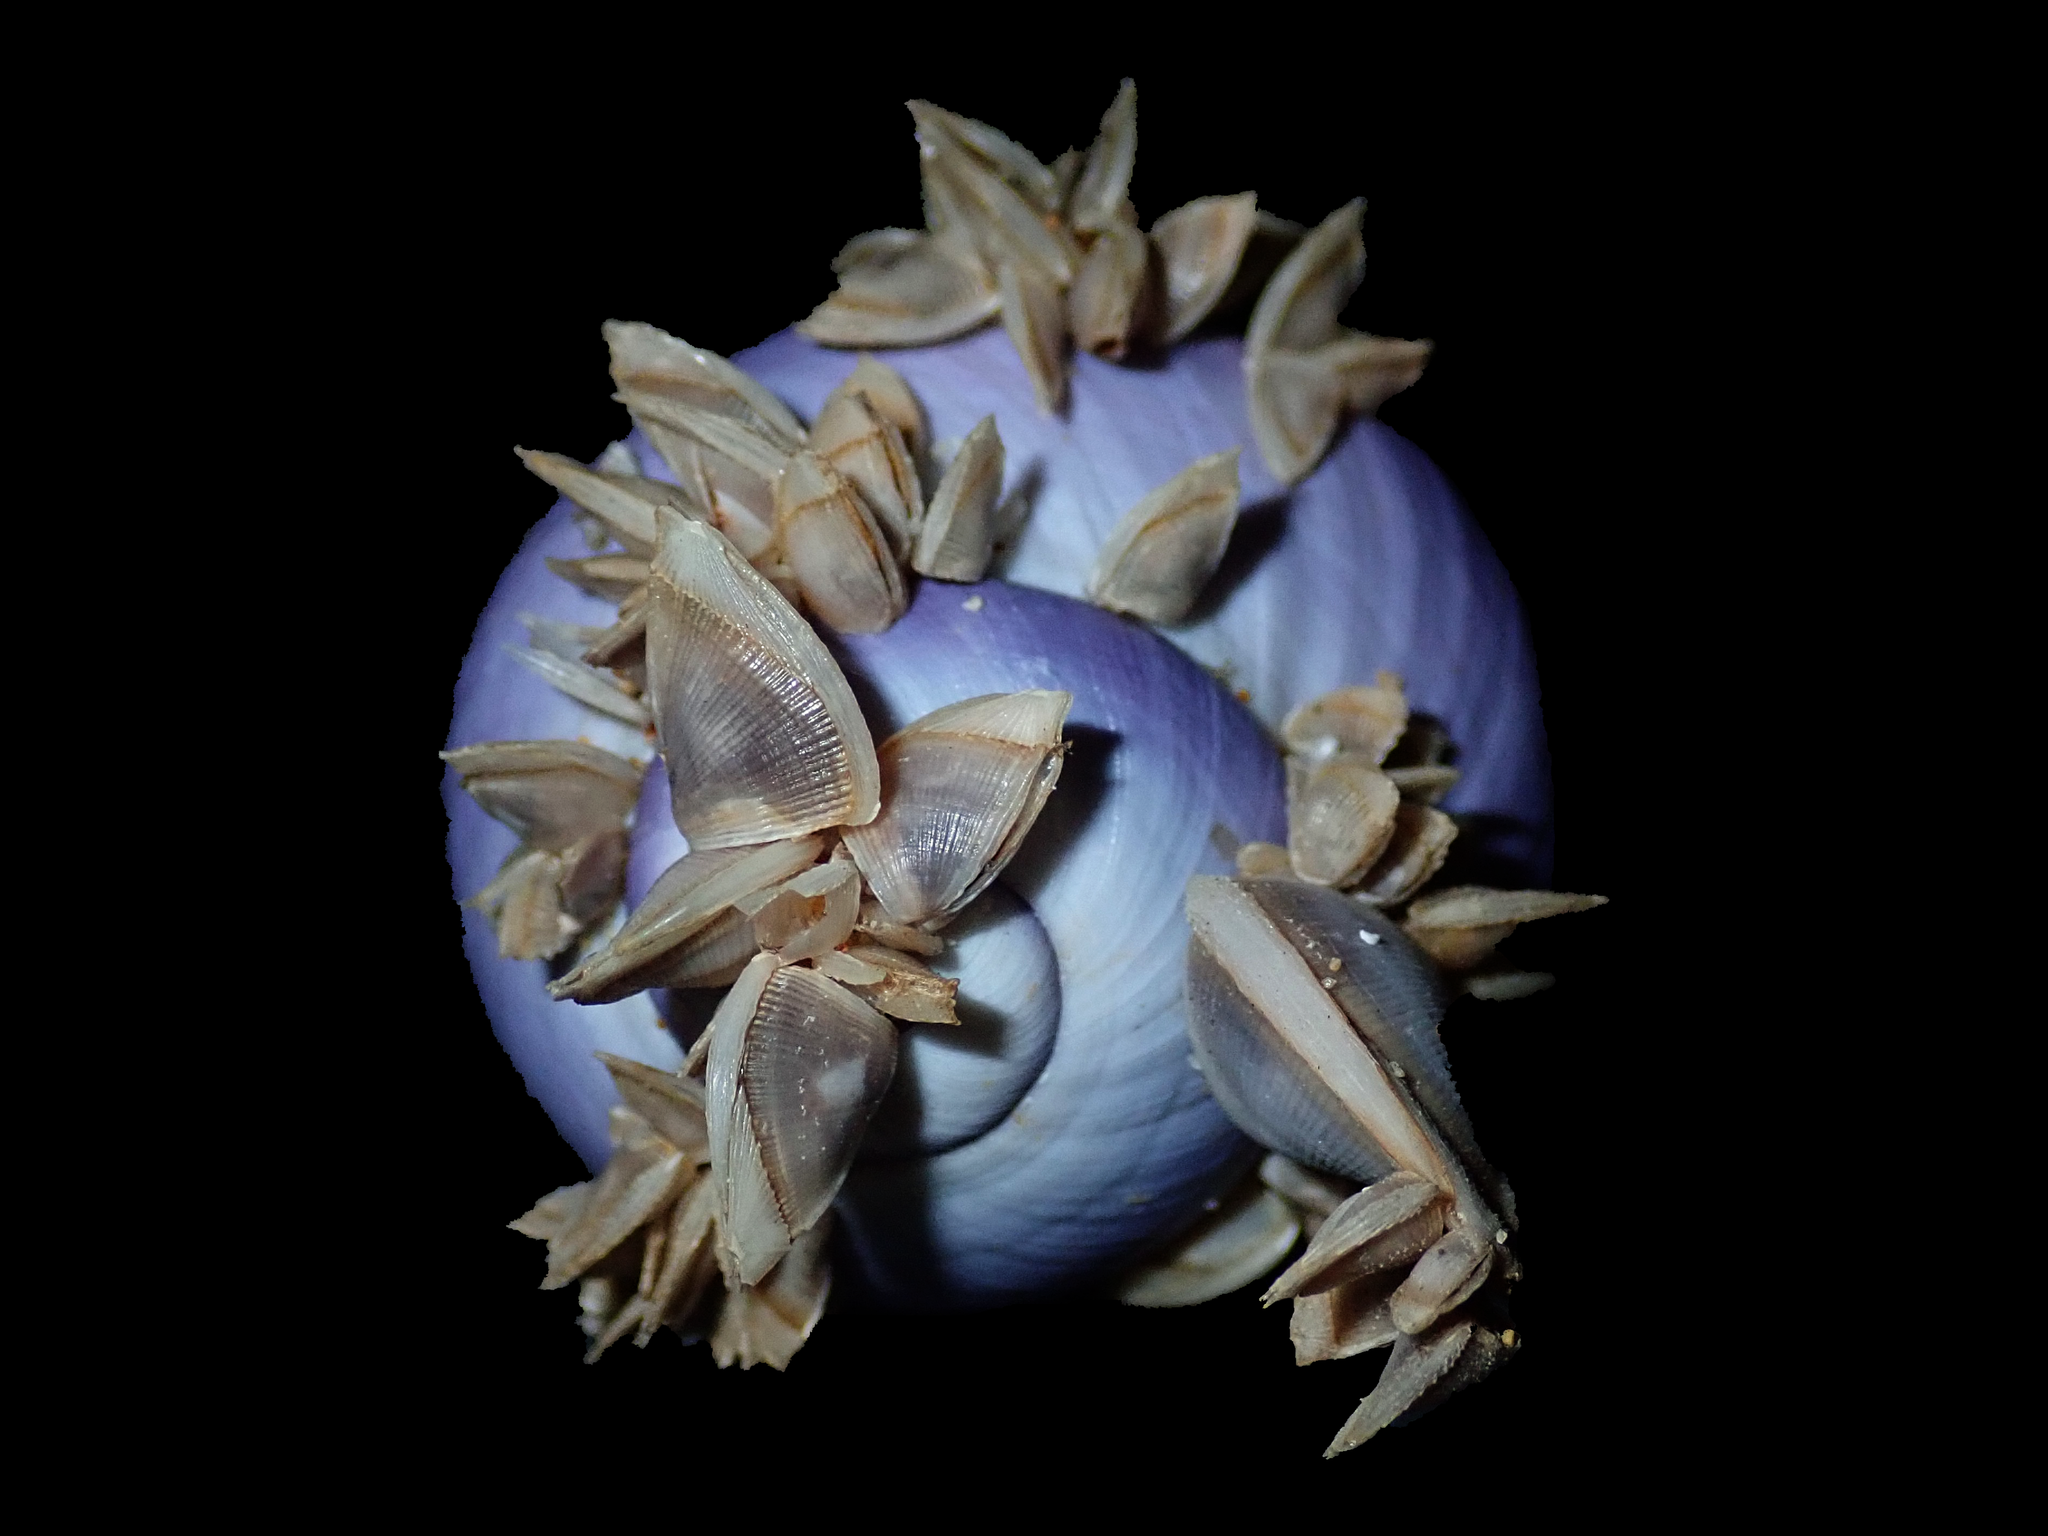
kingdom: Animalia
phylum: Arthropoda
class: Maxillopoda
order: Pedunculata
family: Lepadidae
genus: Lepas
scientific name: Lepas pectinata
